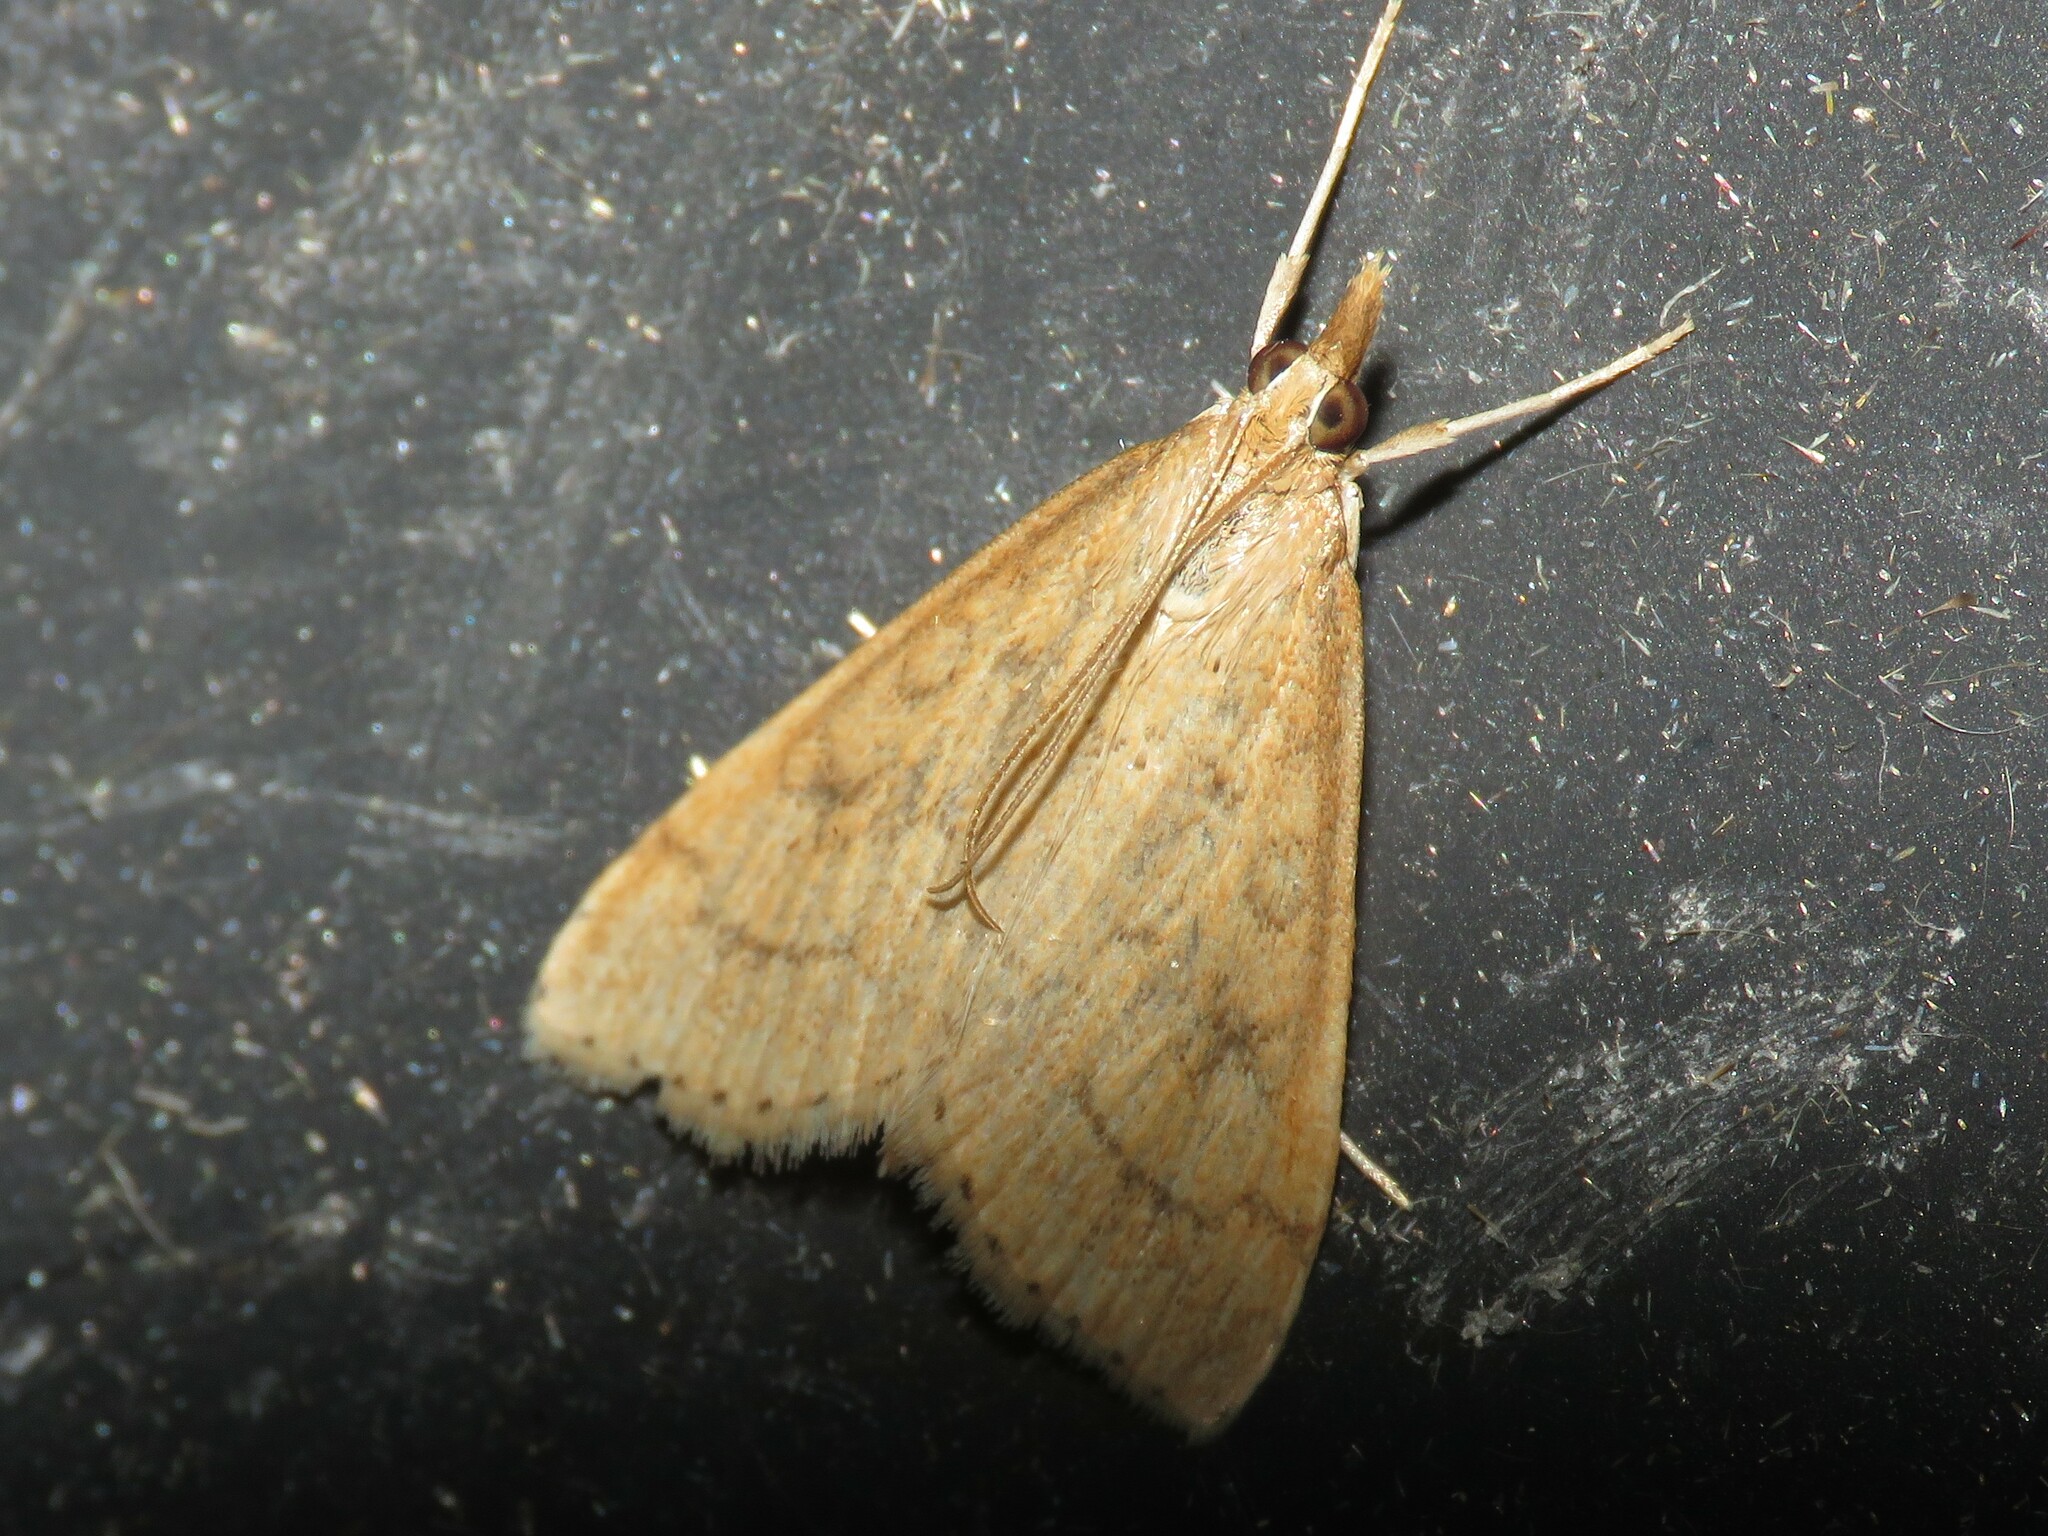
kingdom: Animalia
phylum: Arthropoda
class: Insecta
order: Lepidoptera
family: Crambidae
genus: Udea
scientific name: Udea rubigalis
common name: Celery leaftier moth
